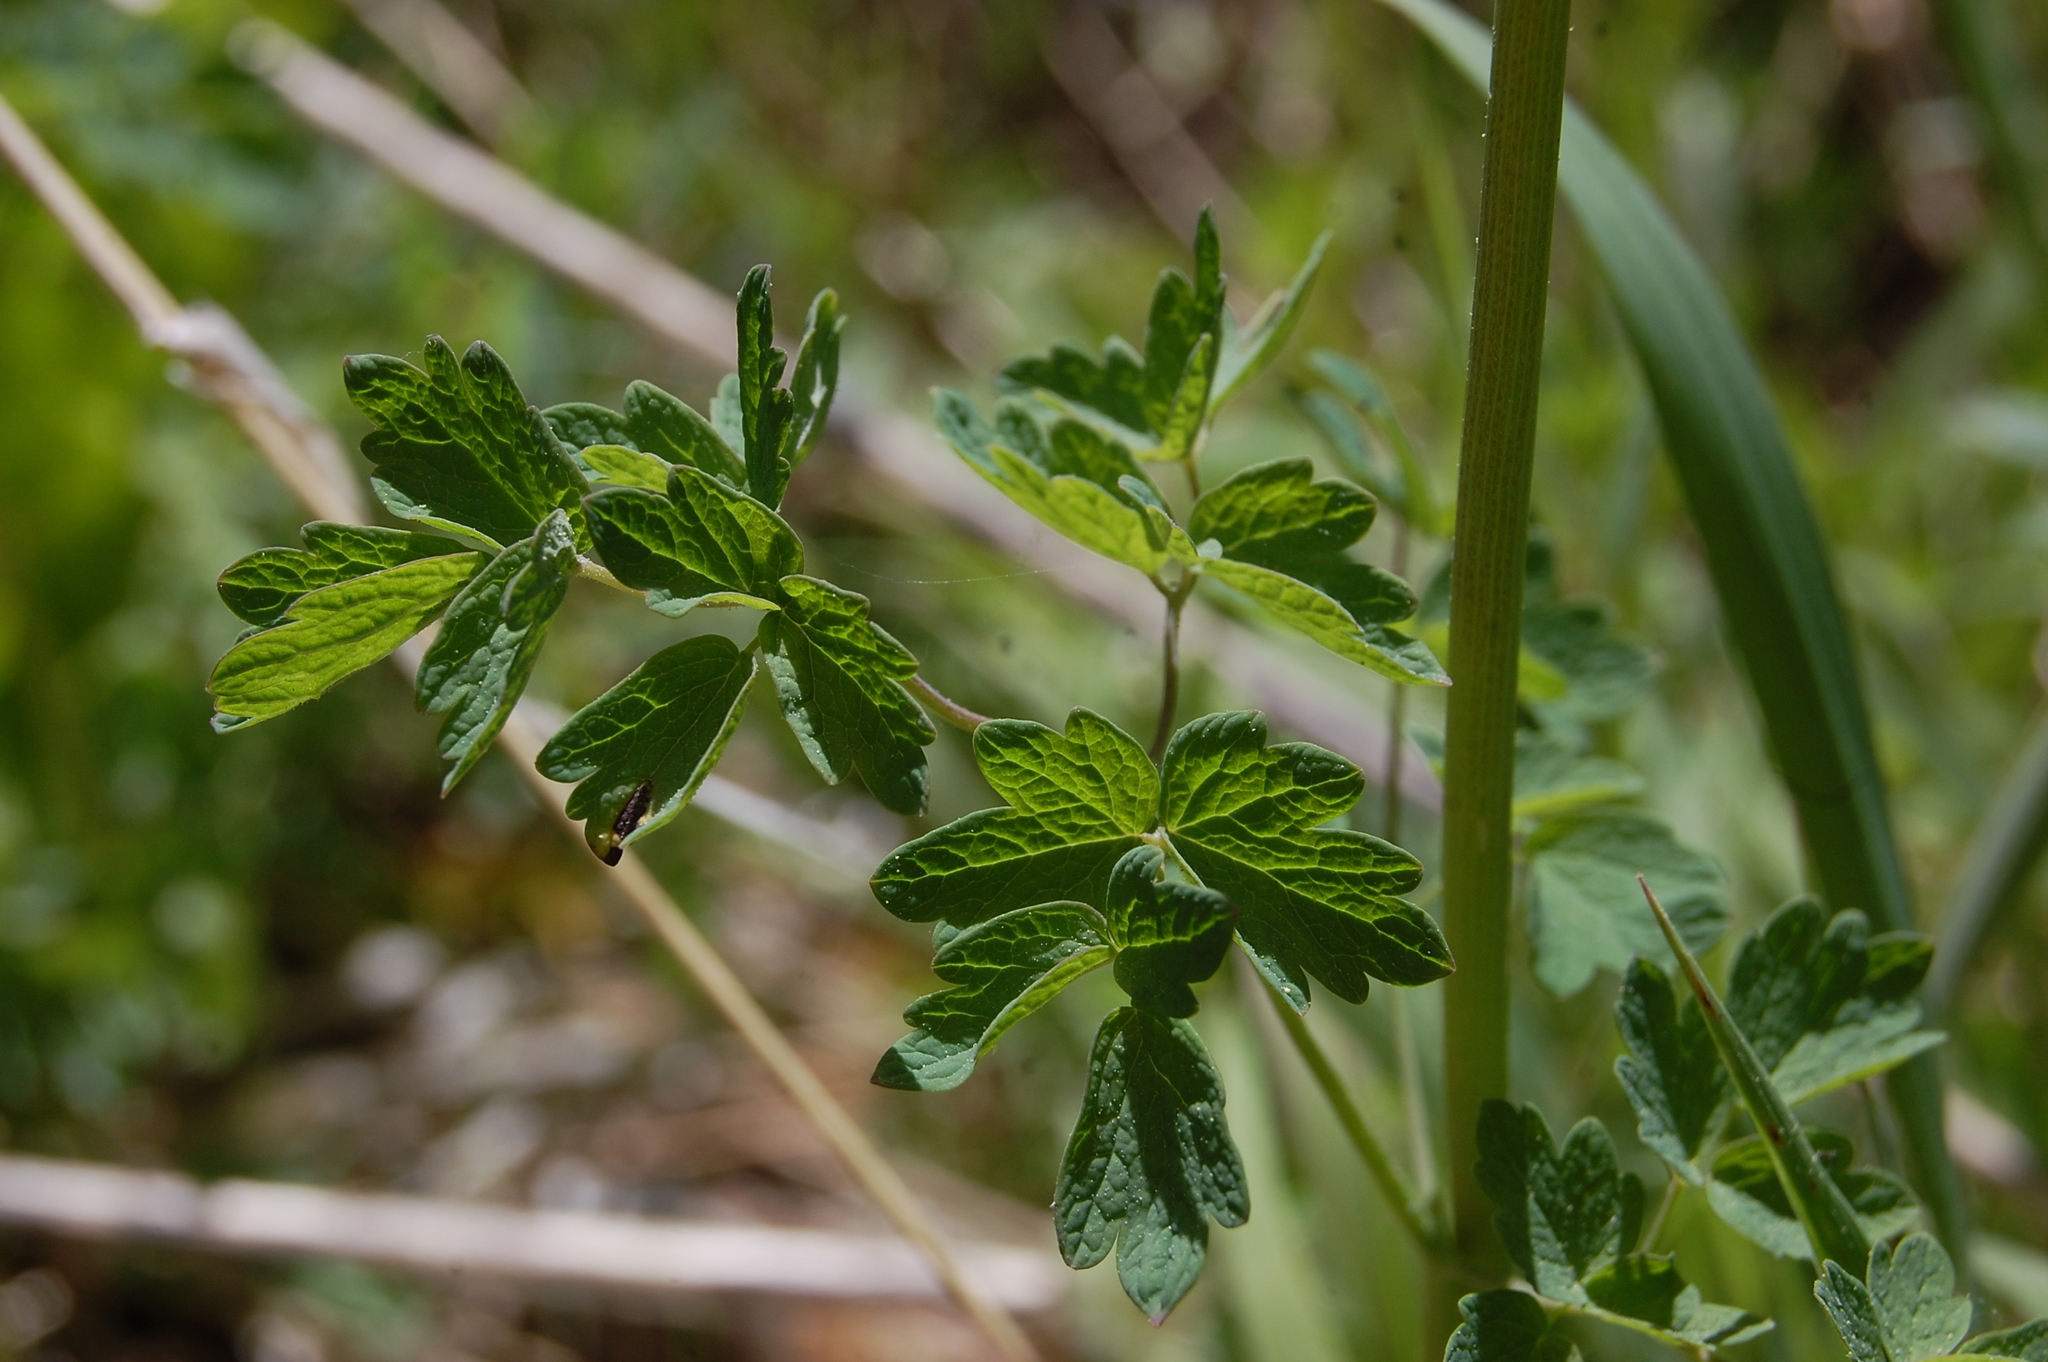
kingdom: Plantae
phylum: Tracheophyta
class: Magnoliopsida
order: Ranunculales
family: Ranunculaceae
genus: Thalictrum
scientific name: Thalictrum sparsiflorum
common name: Mountain meadow-rue
